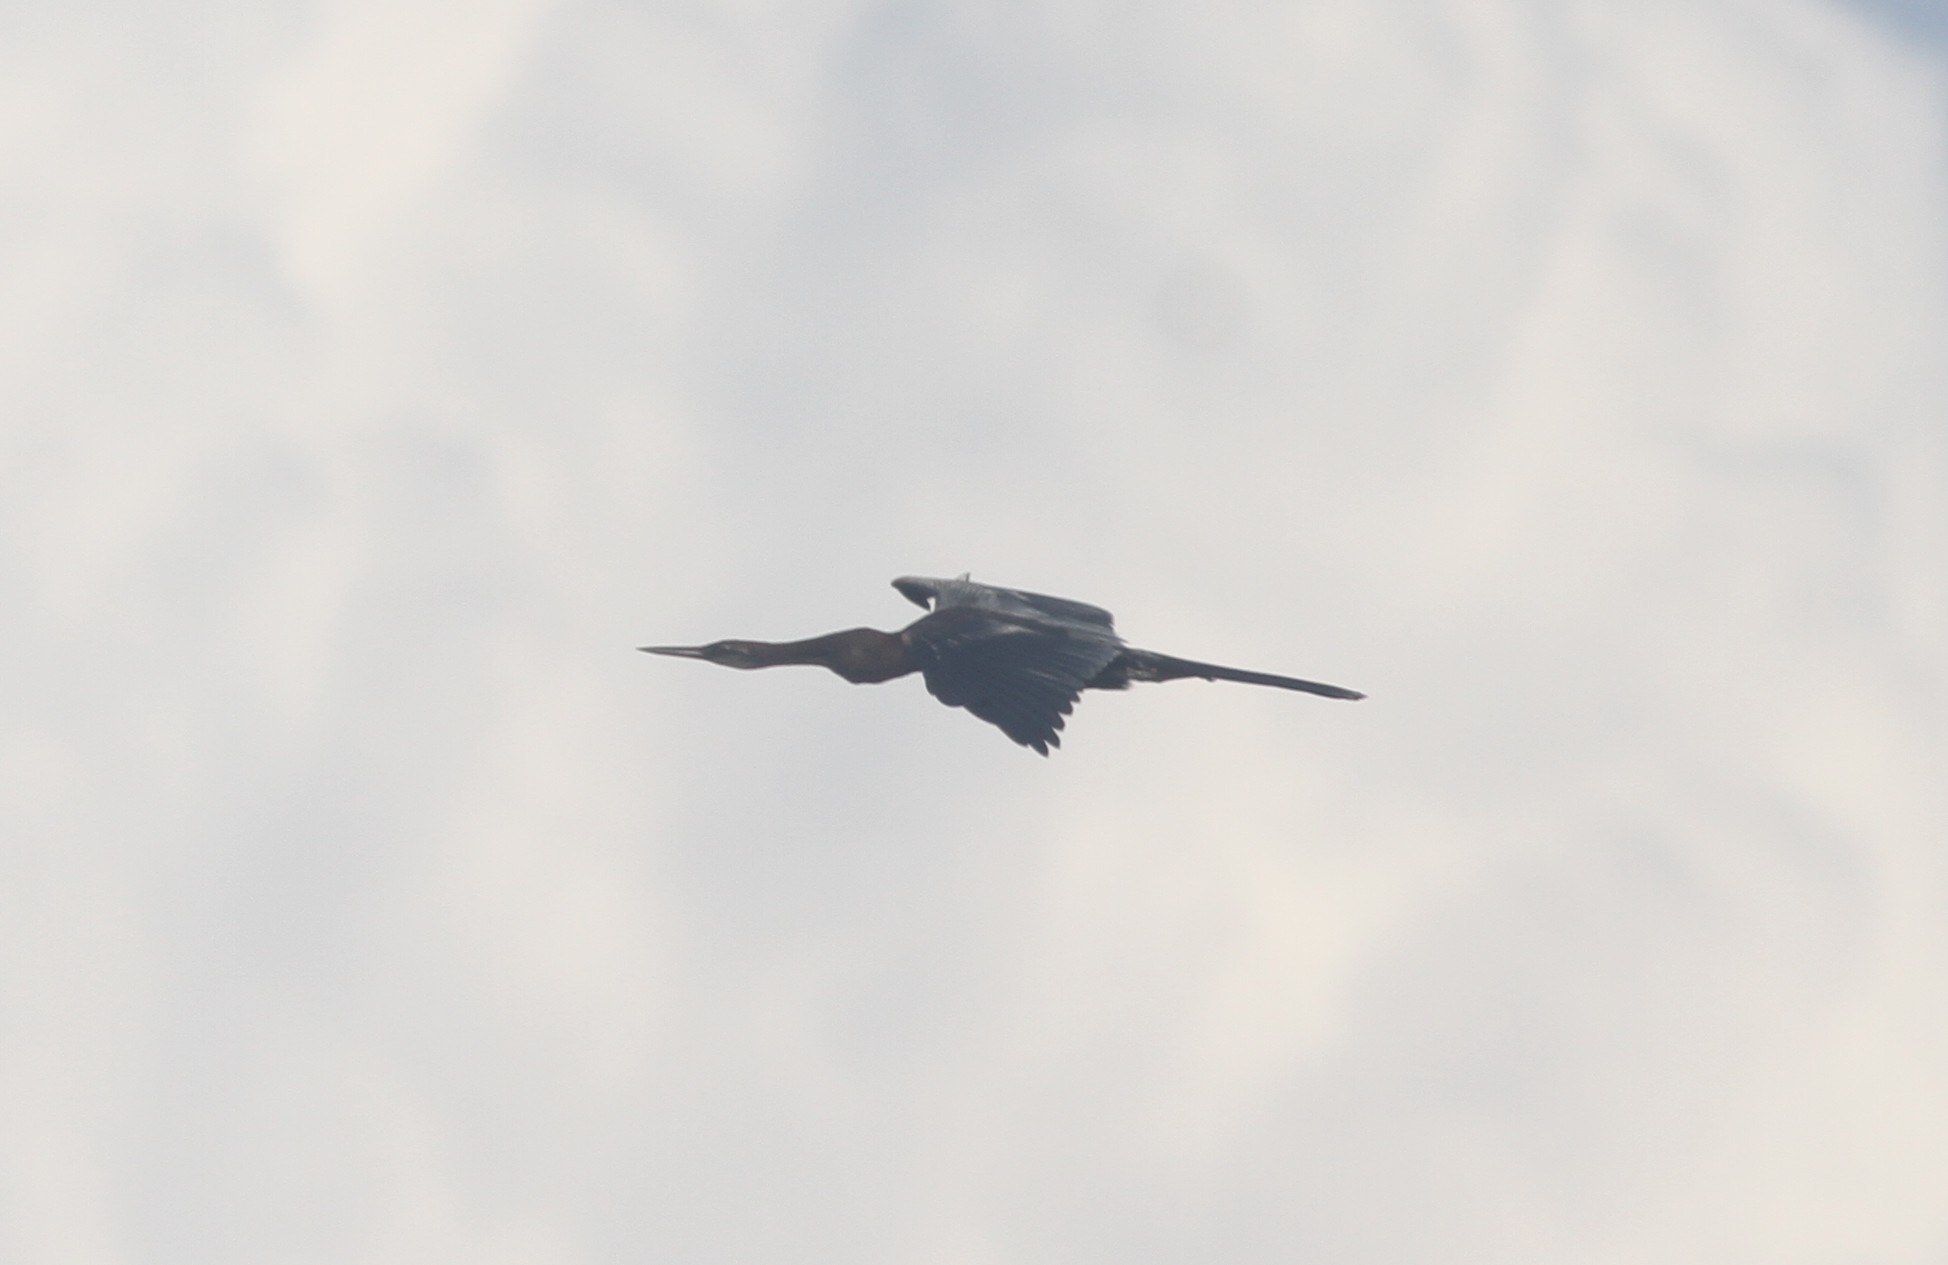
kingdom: Animalia
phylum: Chordata
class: Aves
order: Suliformes
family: Anhingidae
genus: Anhinga
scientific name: Anhinga melanogaster
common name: Oriental darter
